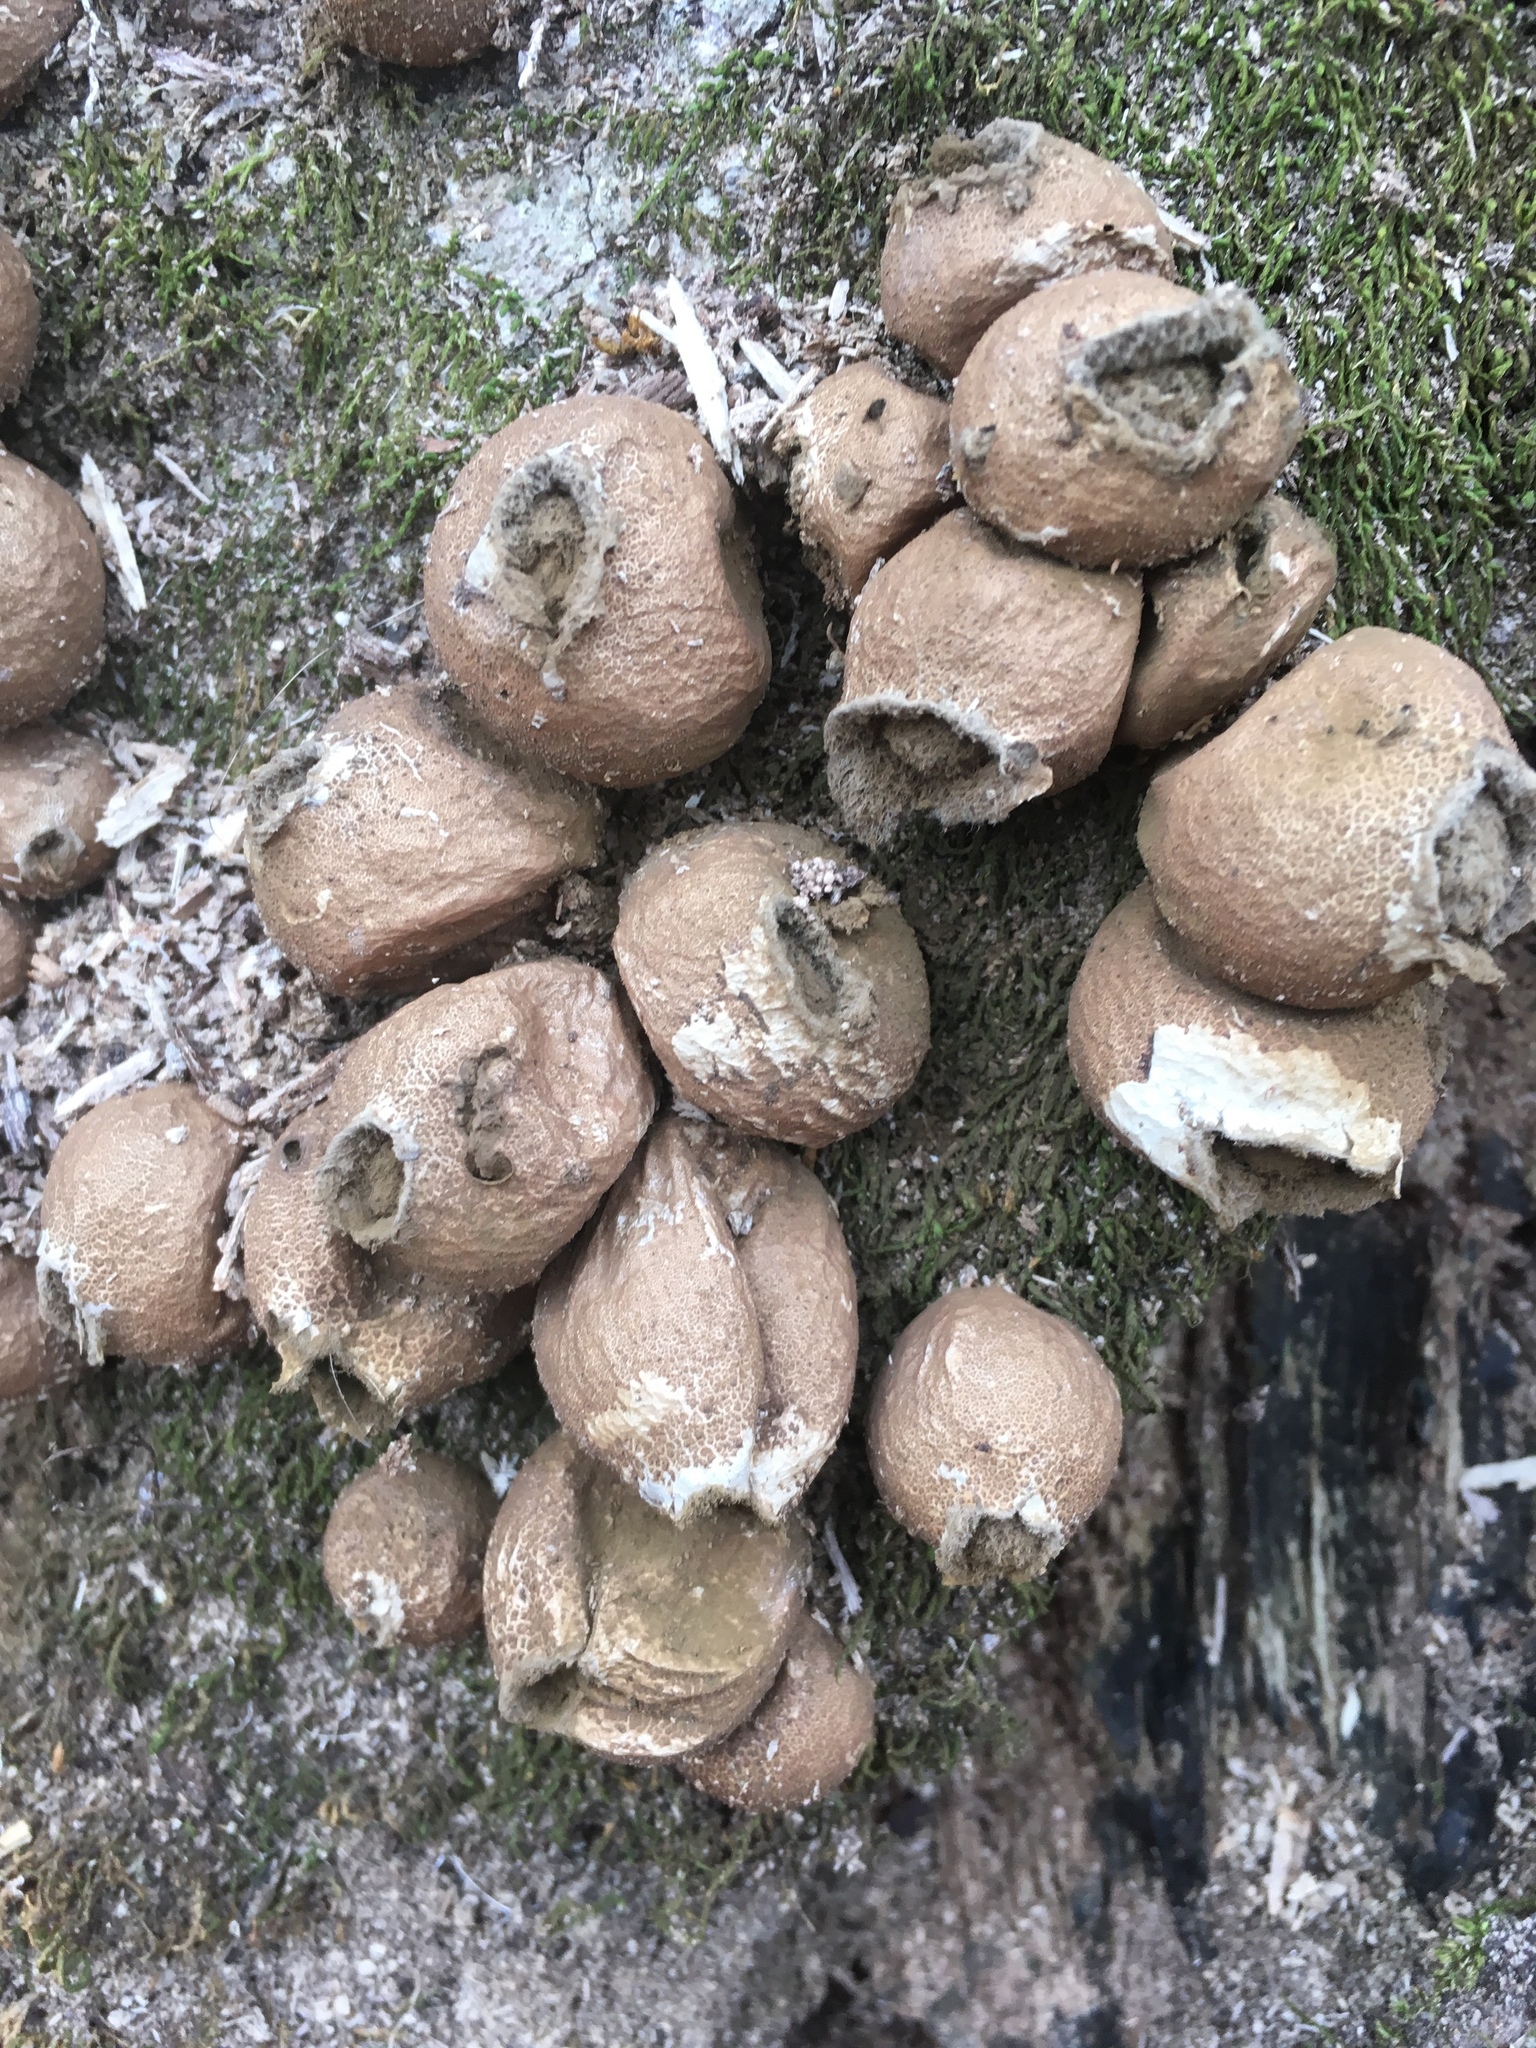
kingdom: Fungi
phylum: Basidiomycota
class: Agaricomycetes
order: Agaricales
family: Lycoperdaceae
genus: Apioperdon
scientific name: Apioperdon pyriforme
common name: Pear-shaped puffball
